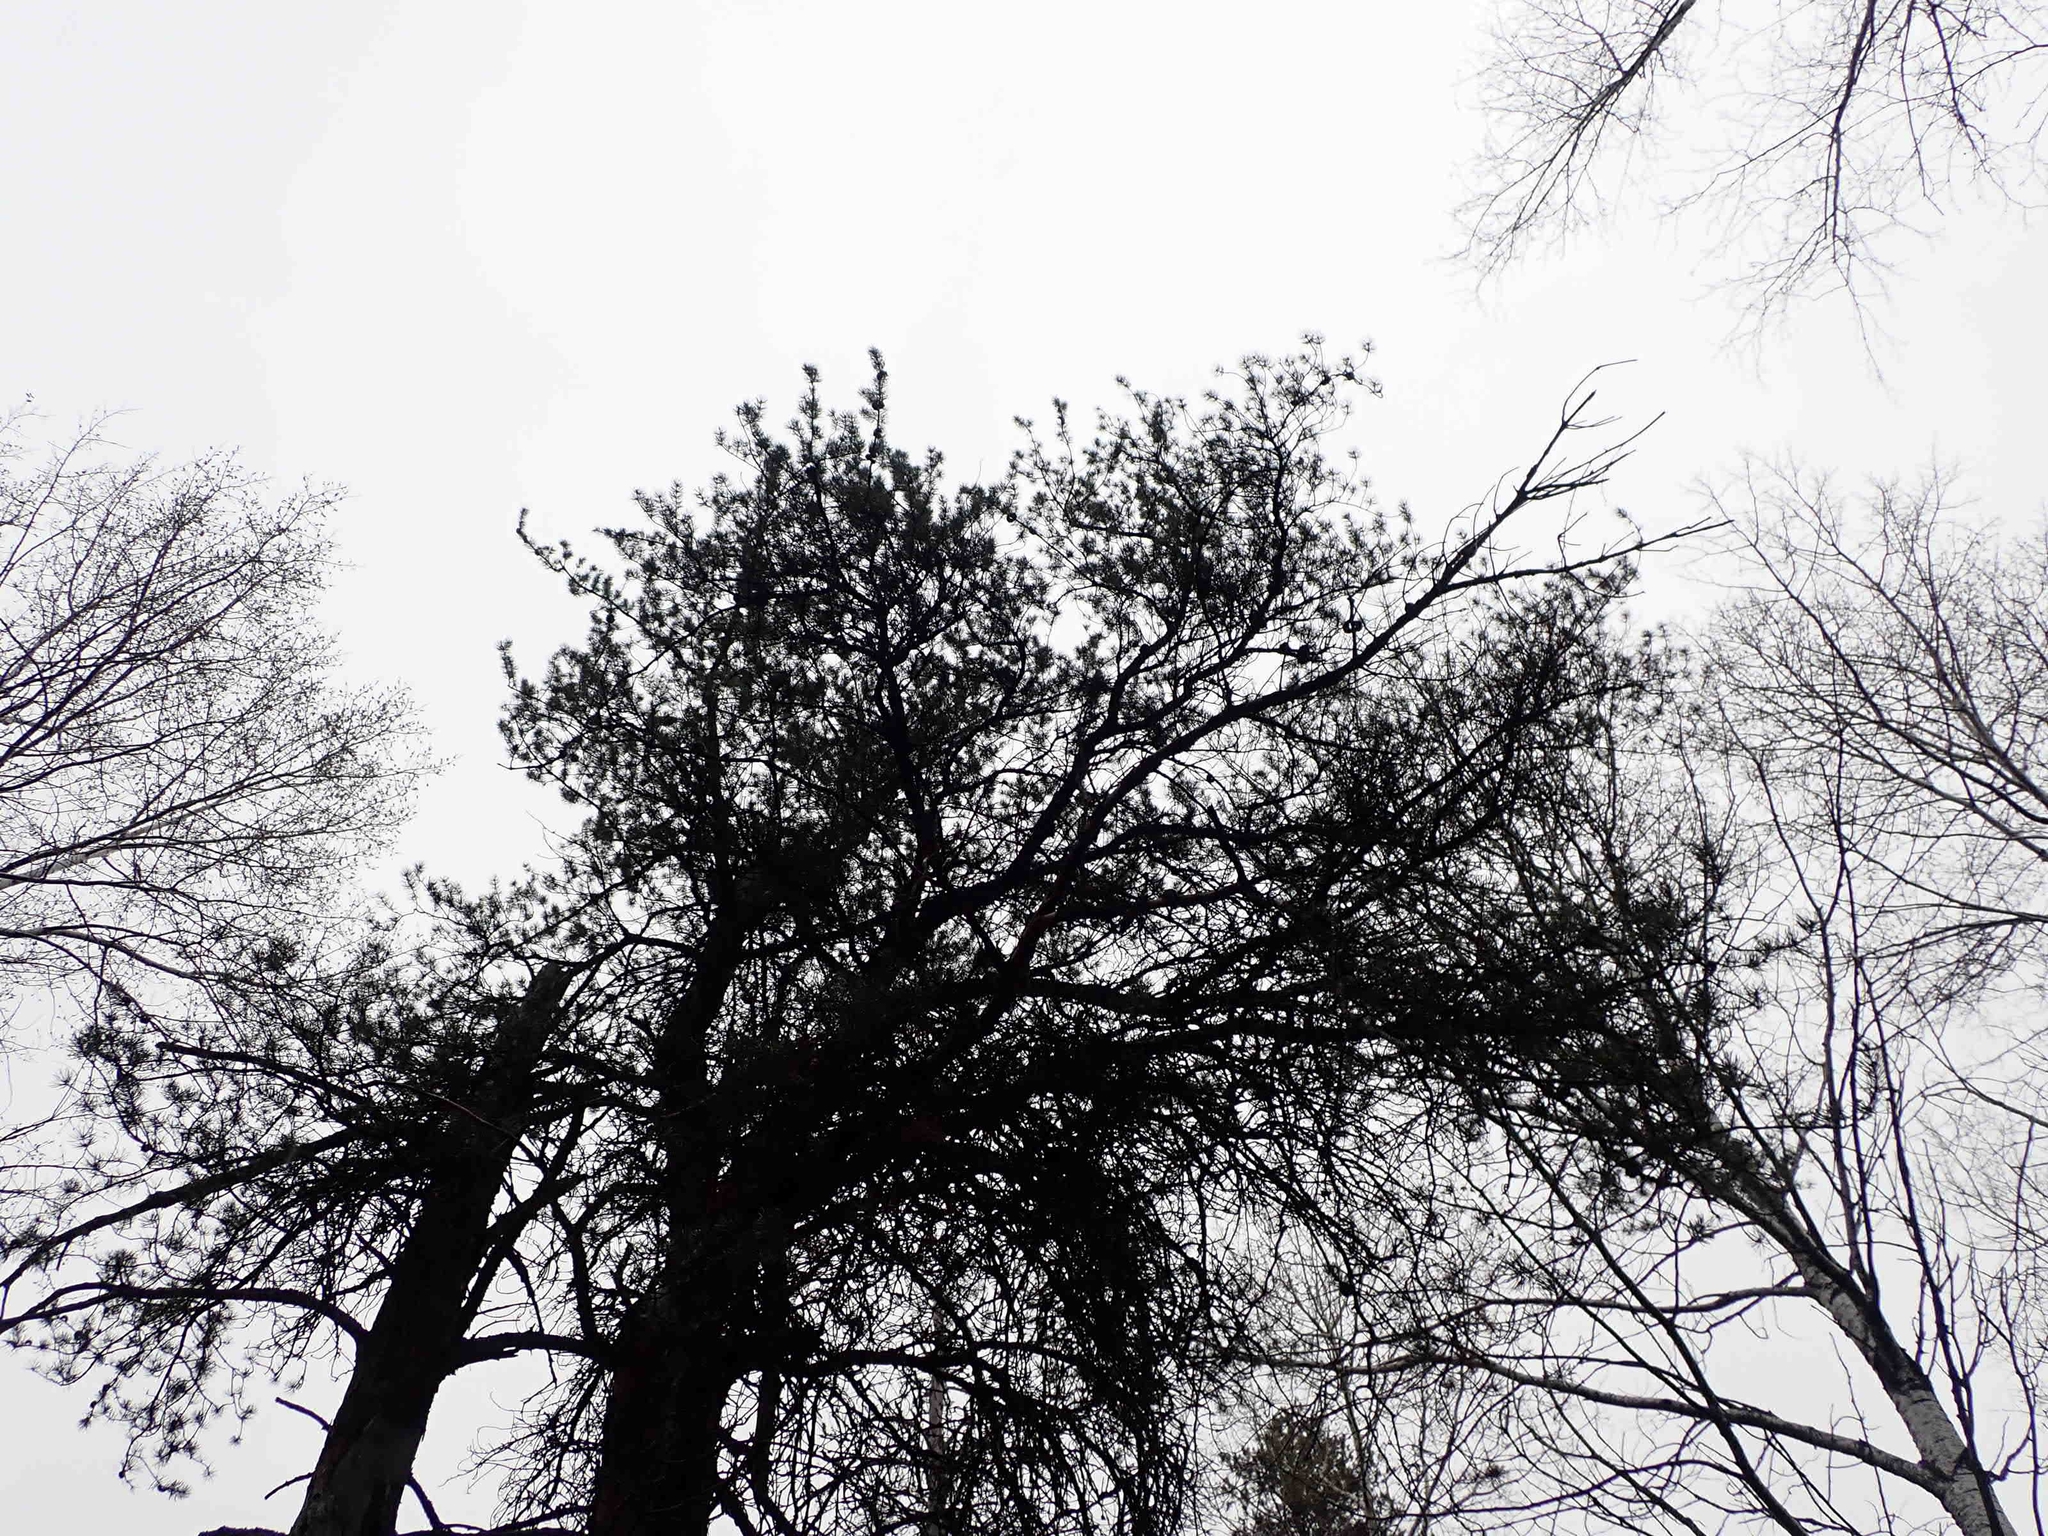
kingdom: Plantae
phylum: Tracheophyta
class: Pinopsida
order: Pinales
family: Pinaceae
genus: Pinus
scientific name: Pinus banksiana
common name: Jack pine
